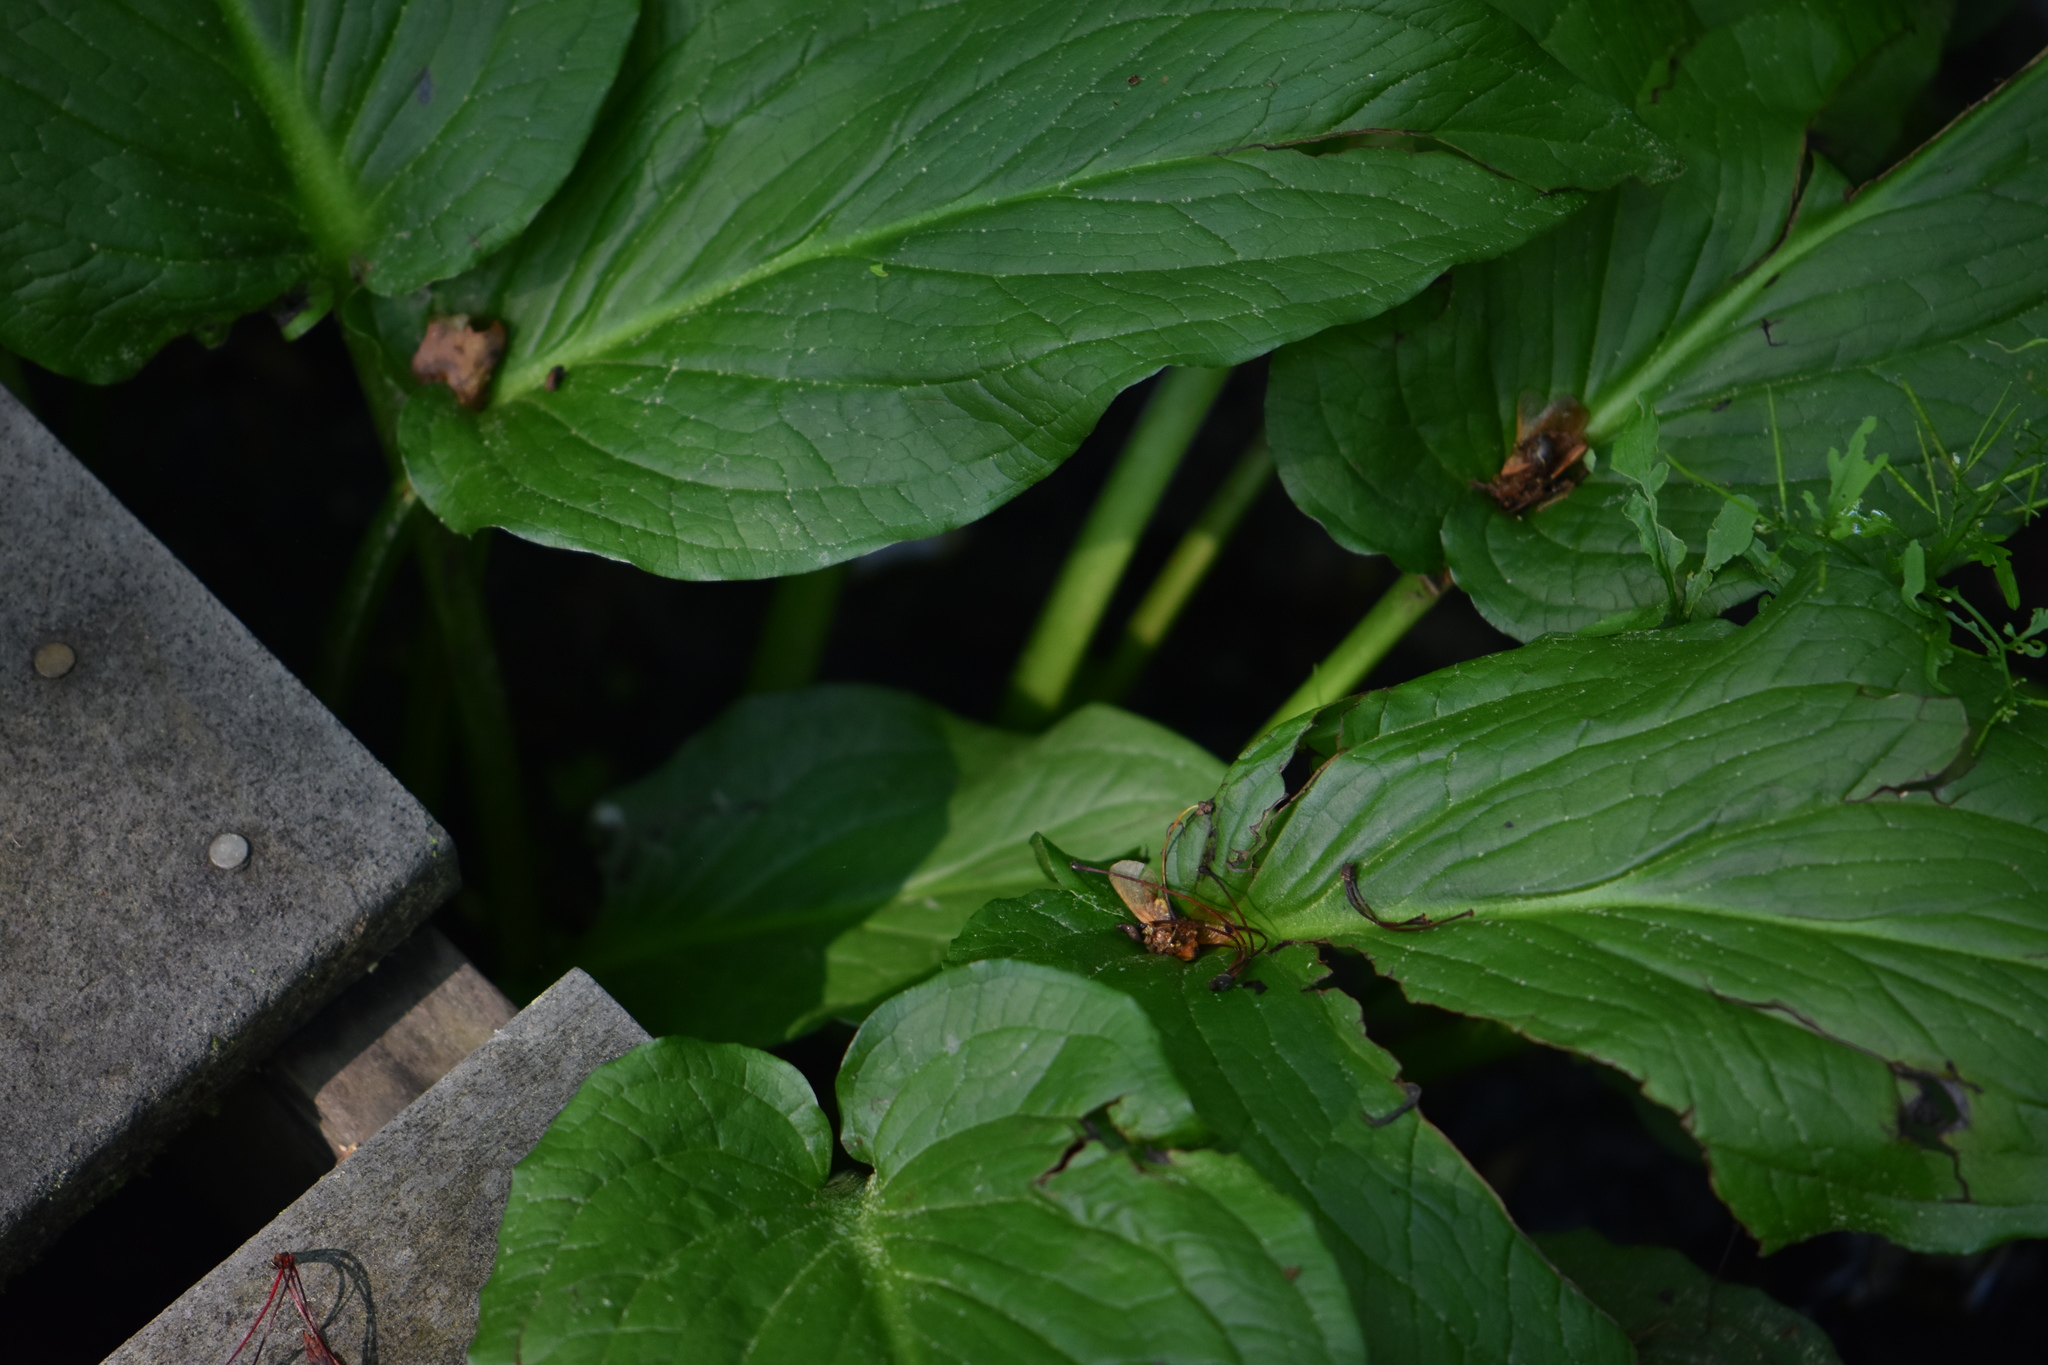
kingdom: Plantae
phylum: Tracheophyta
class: Liliopsida
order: Alismatales
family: Araceae
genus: Symplocarpus
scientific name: Symplocarpus foetidus
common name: Eastern skunk cabbage
